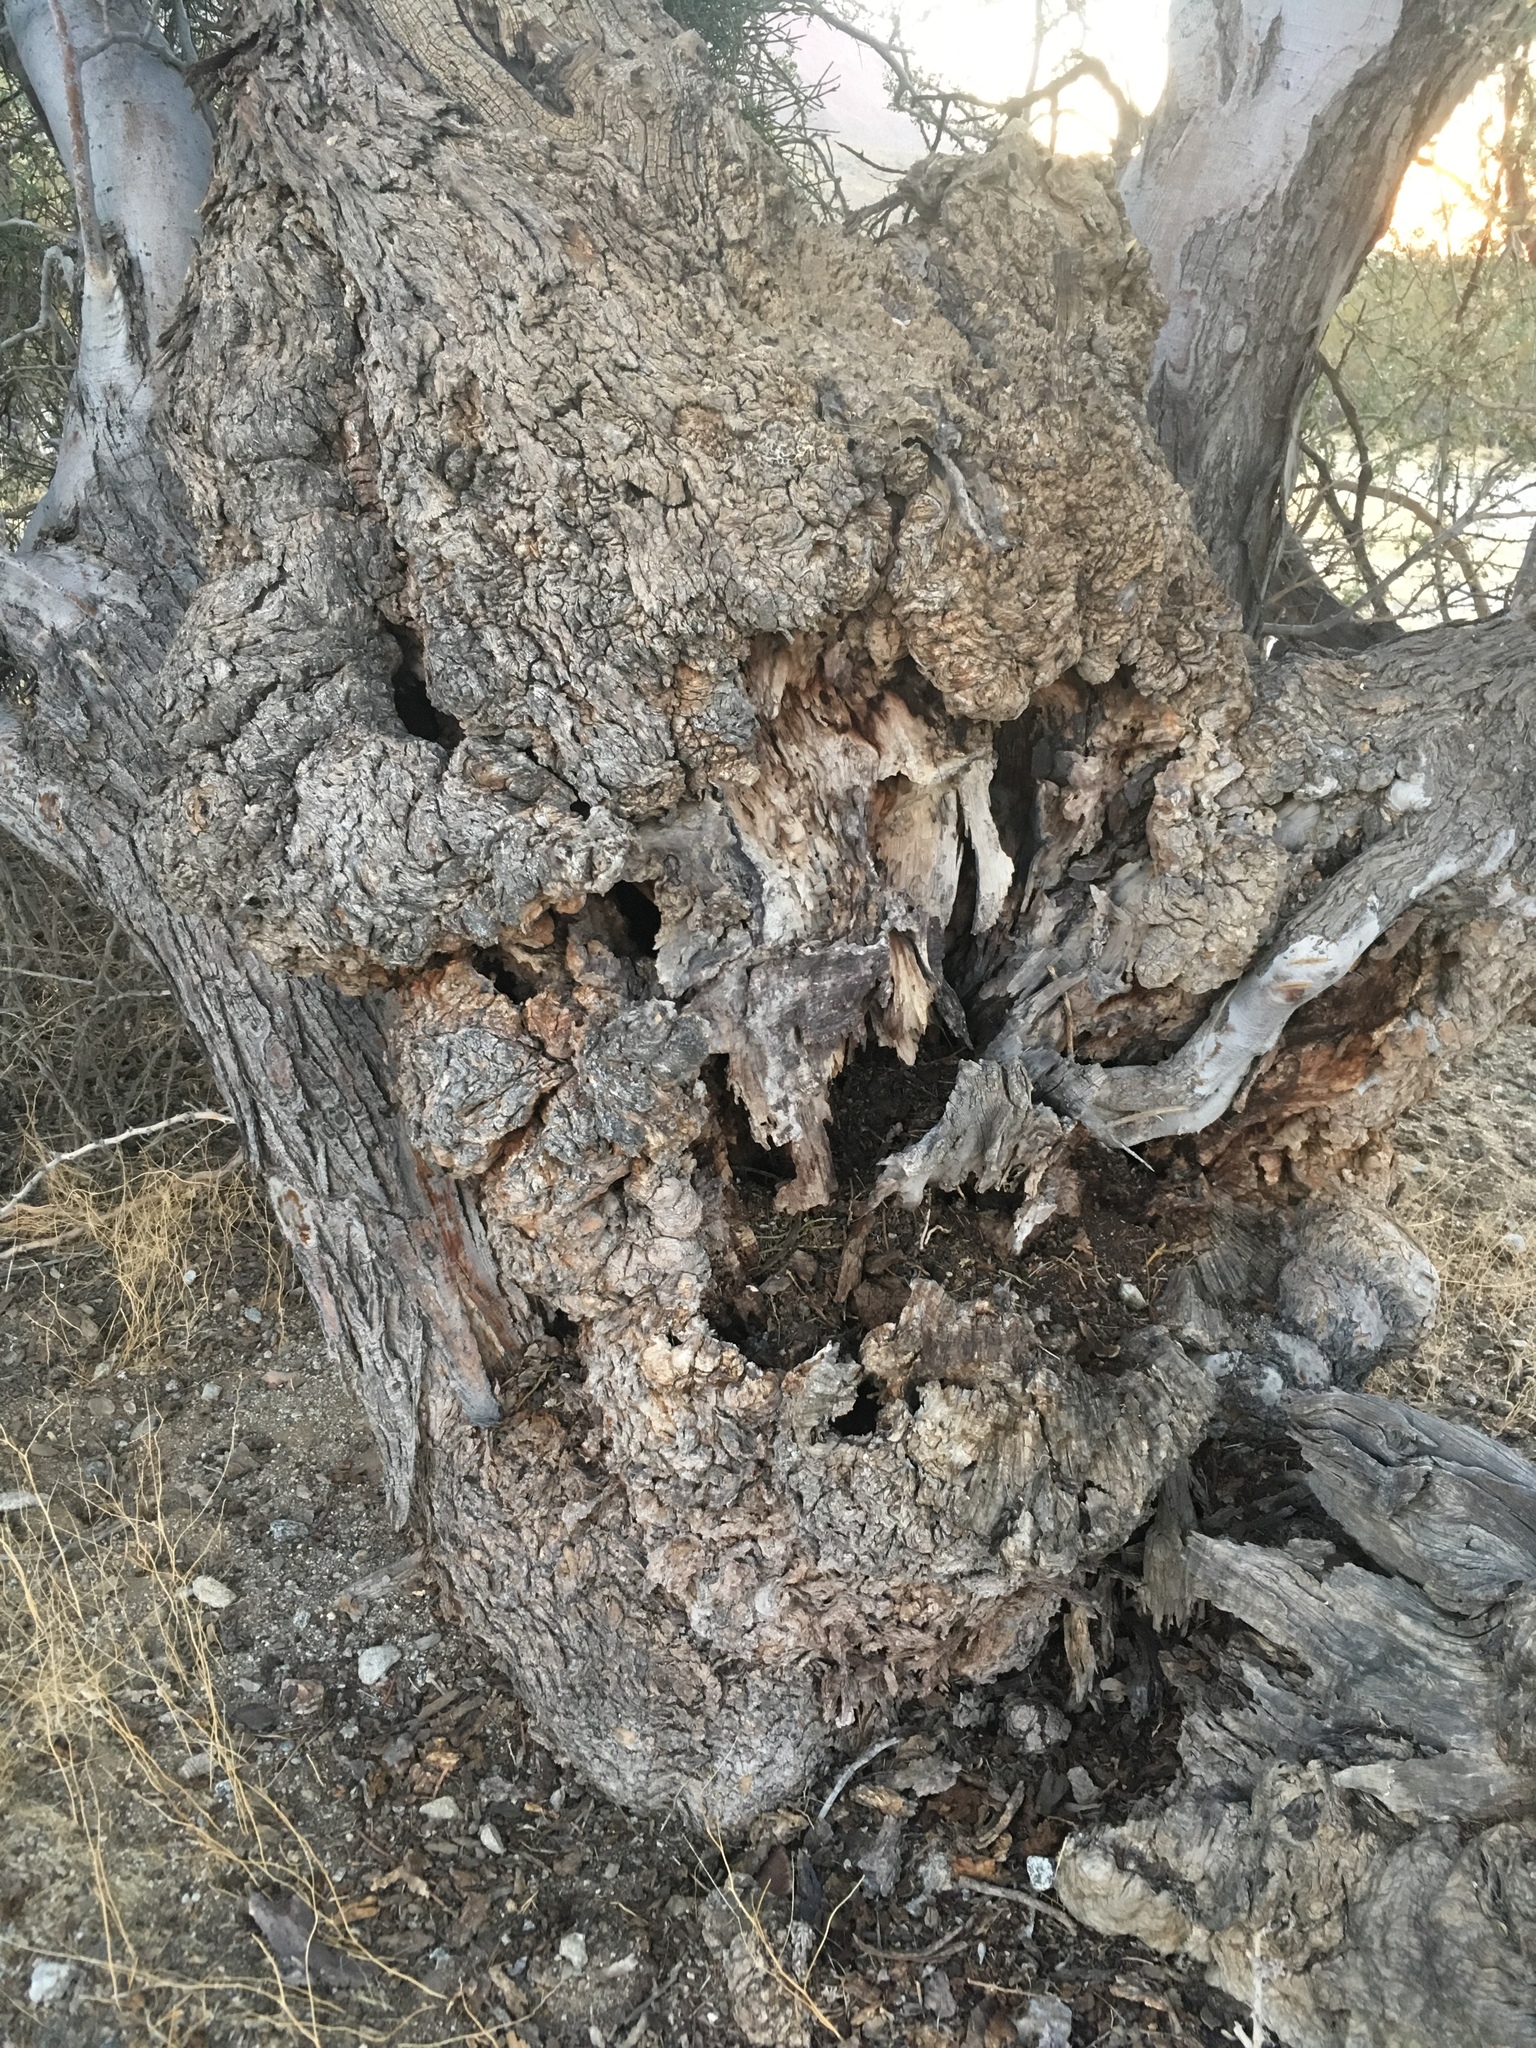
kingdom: Plantae
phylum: Tracheophyta
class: Magnoliopsida
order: Fabales
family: Fabaceae
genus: Olneya
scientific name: Olneya tesota
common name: Desert ironwood
